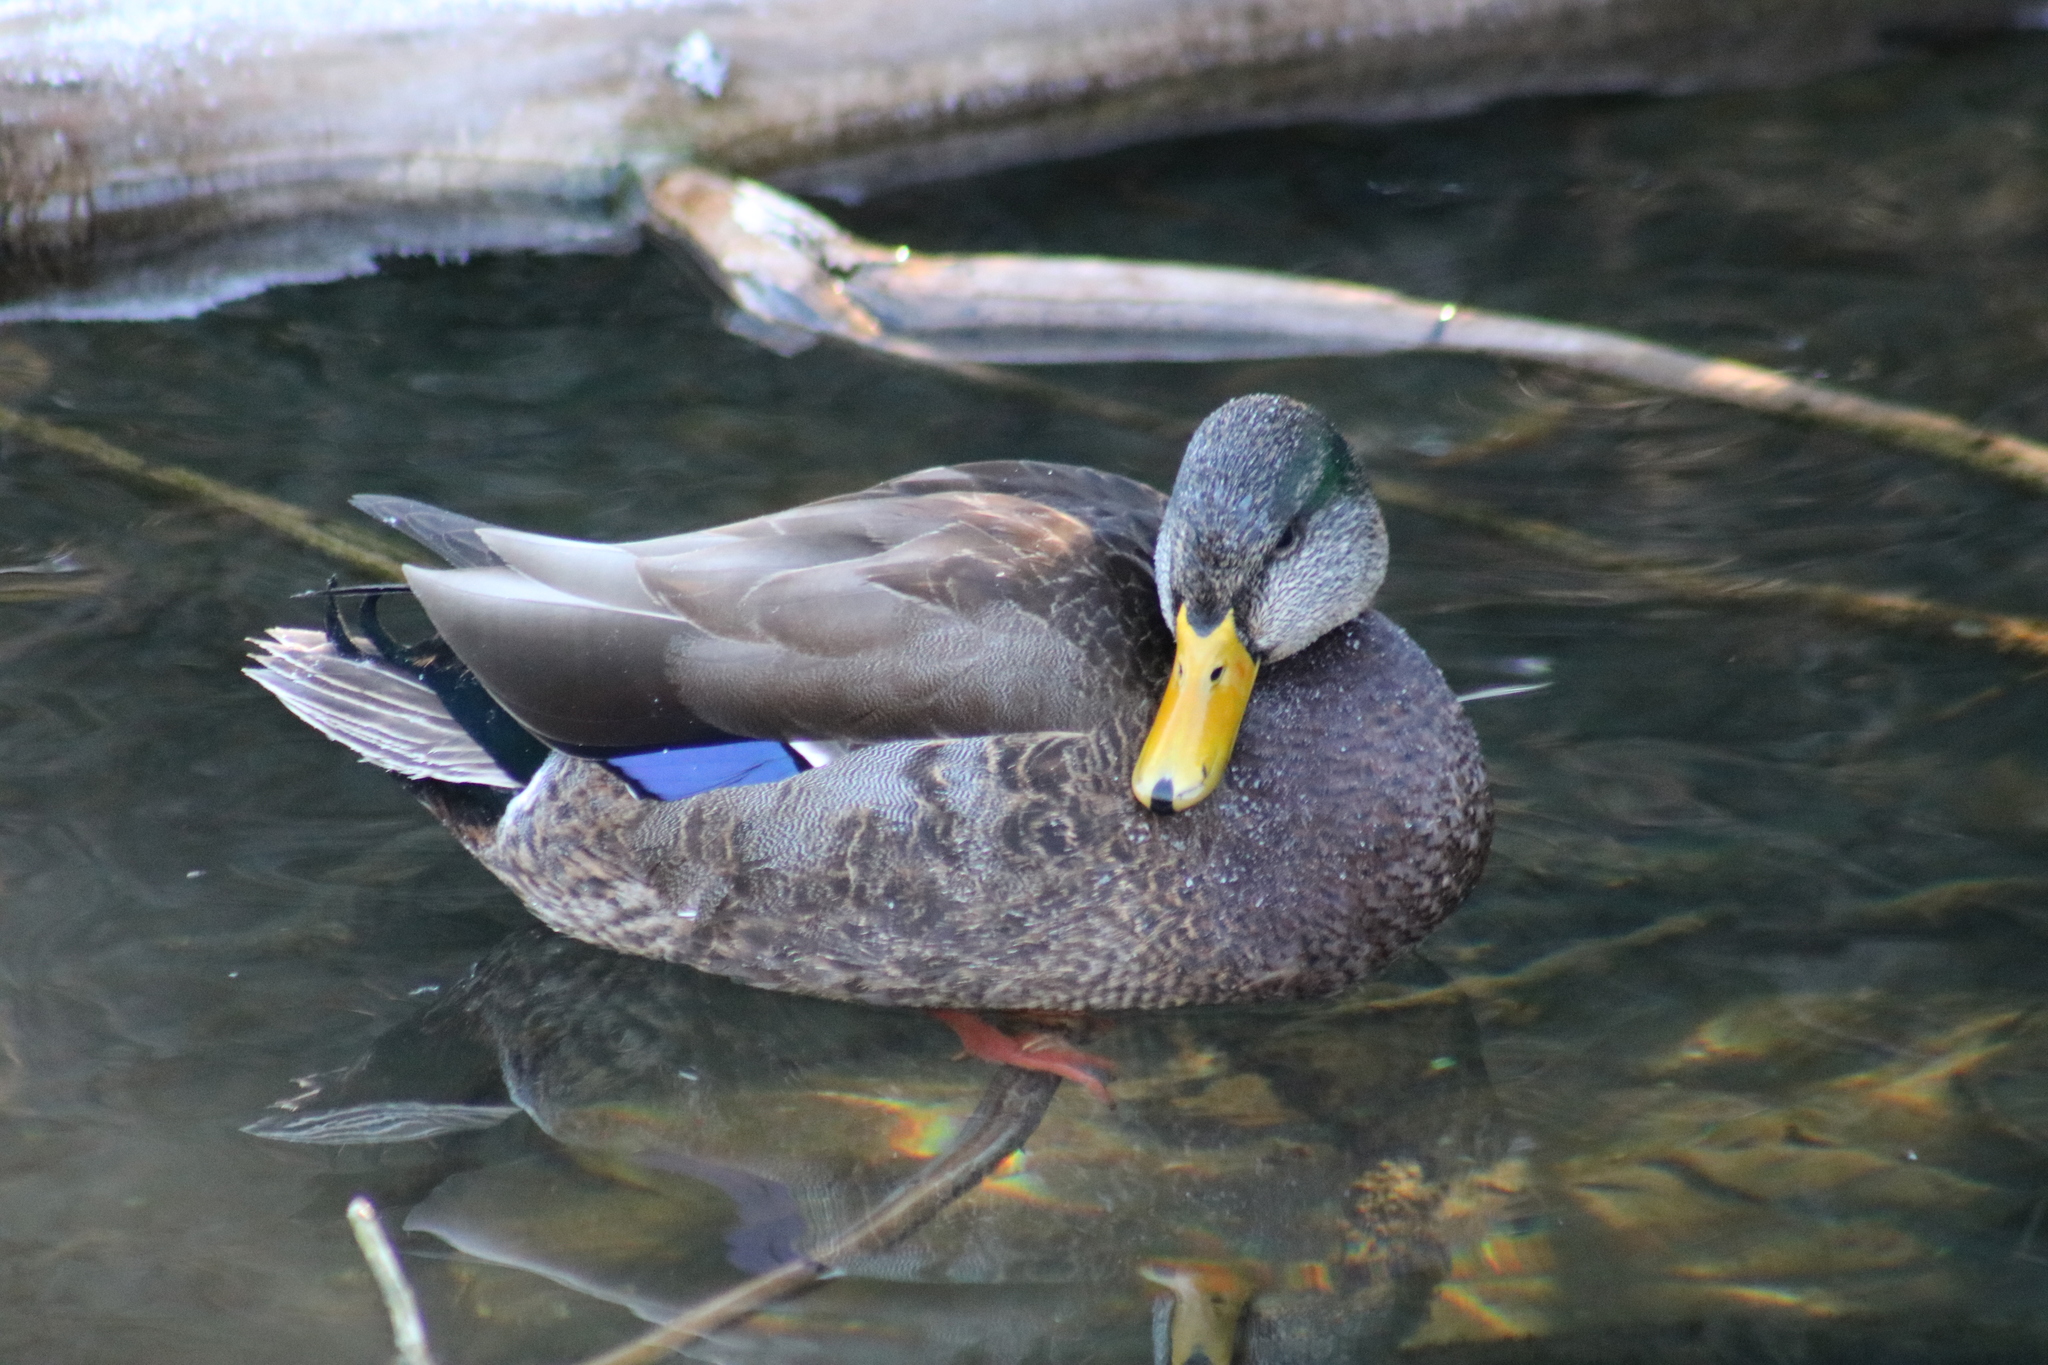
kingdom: Animalia
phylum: Chordata
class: Aves
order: Anseriformes
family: Anatidae
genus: Anas
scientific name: Anas
